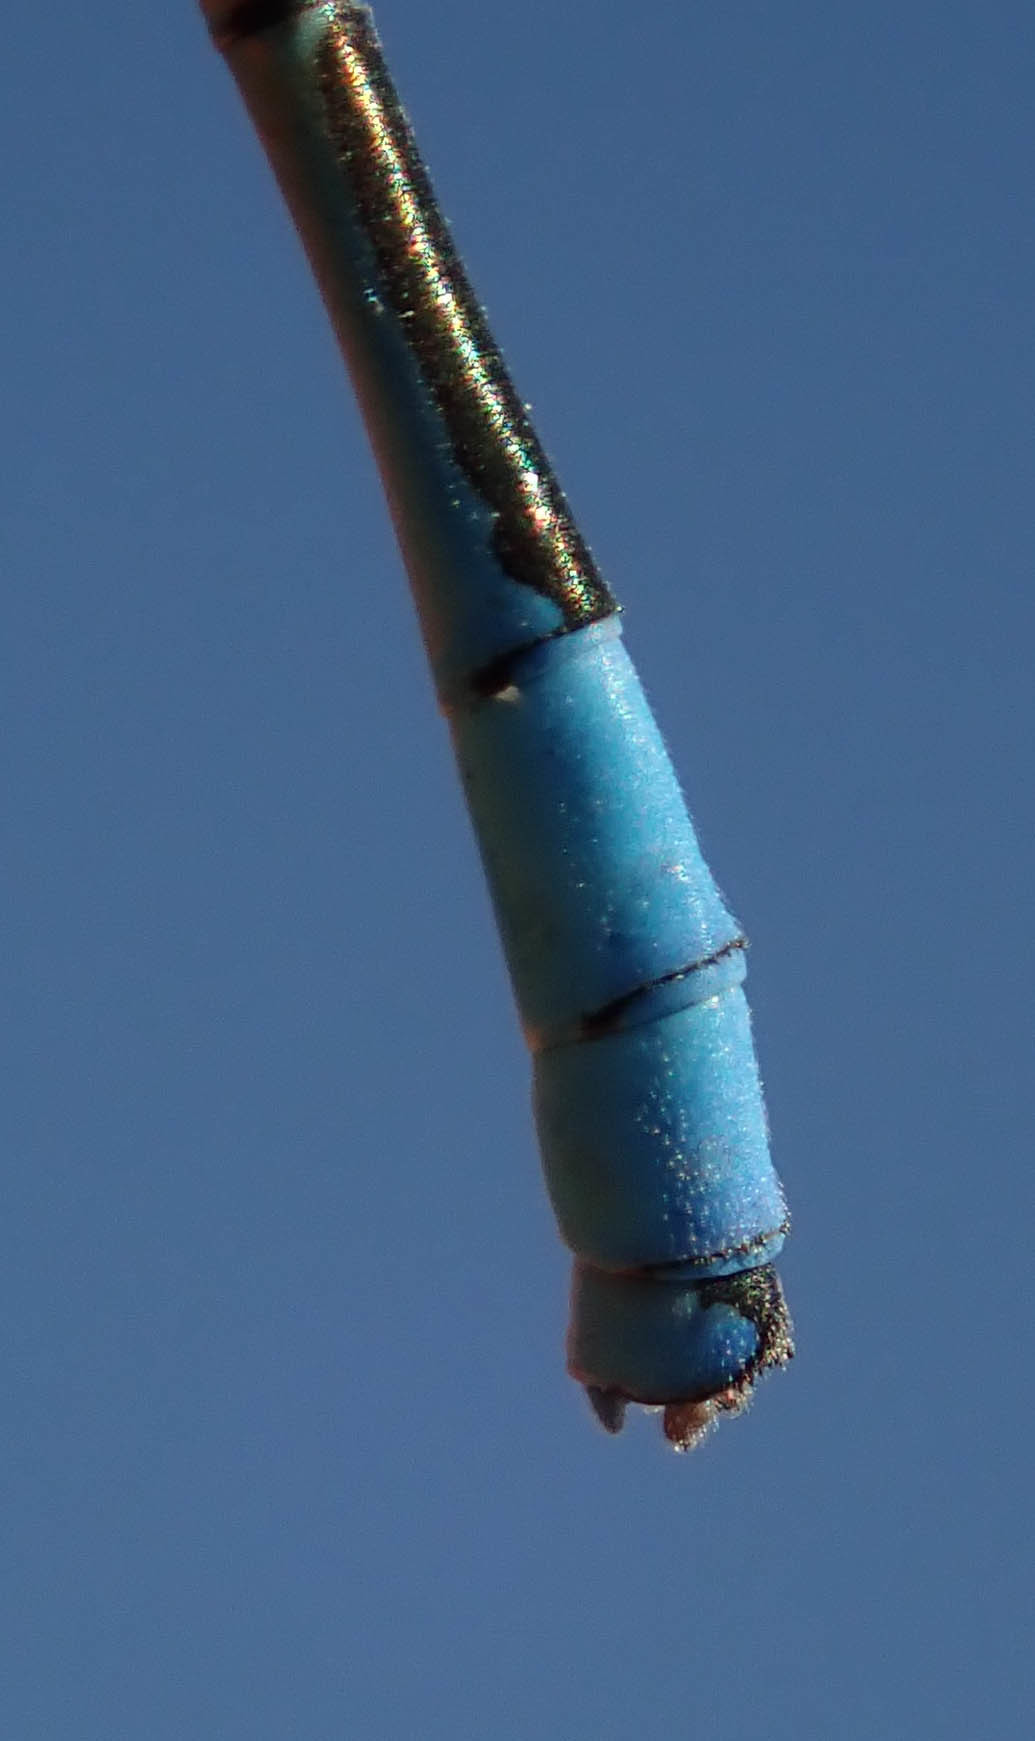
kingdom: Animalia
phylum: Arthropoda
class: Insecta
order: Odonata
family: Coenagrionidae
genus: Pseudagrion
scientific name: Pseudagrion assegaii
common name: Assegaai sprite
